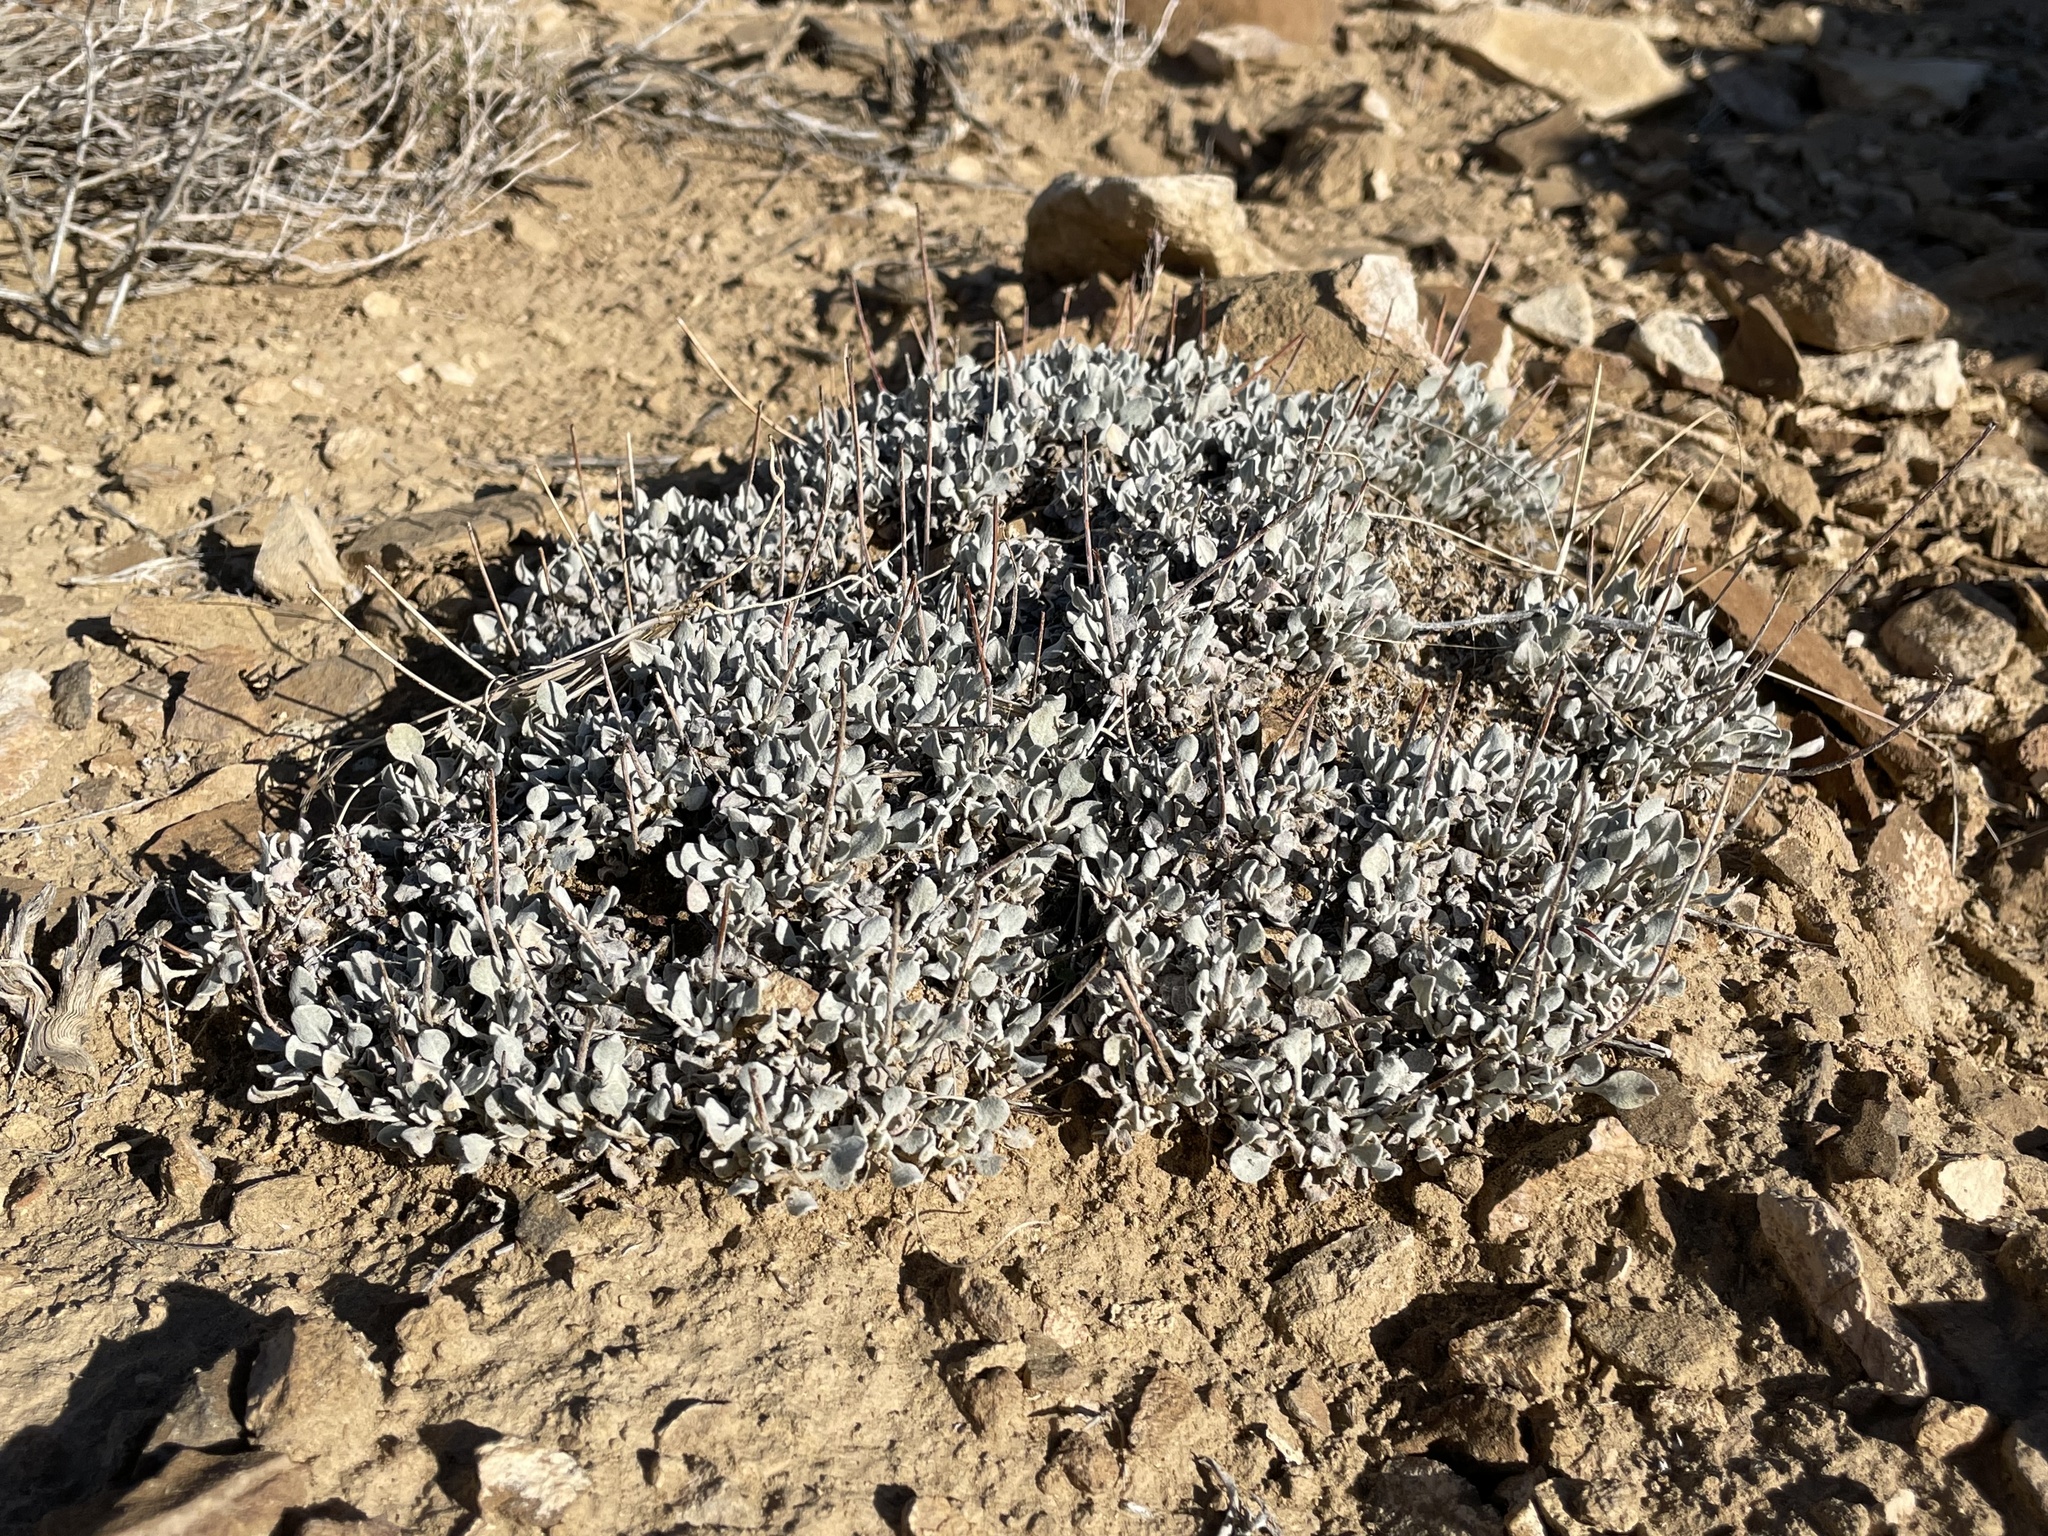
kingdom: Plantae
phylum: Tracheophyta
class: Magnoliopsida
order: Caryophyllales
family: Polygonaceae
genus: Eriogonum
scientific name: Eriogonum ovalifolium
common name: Cushion buckwheat
